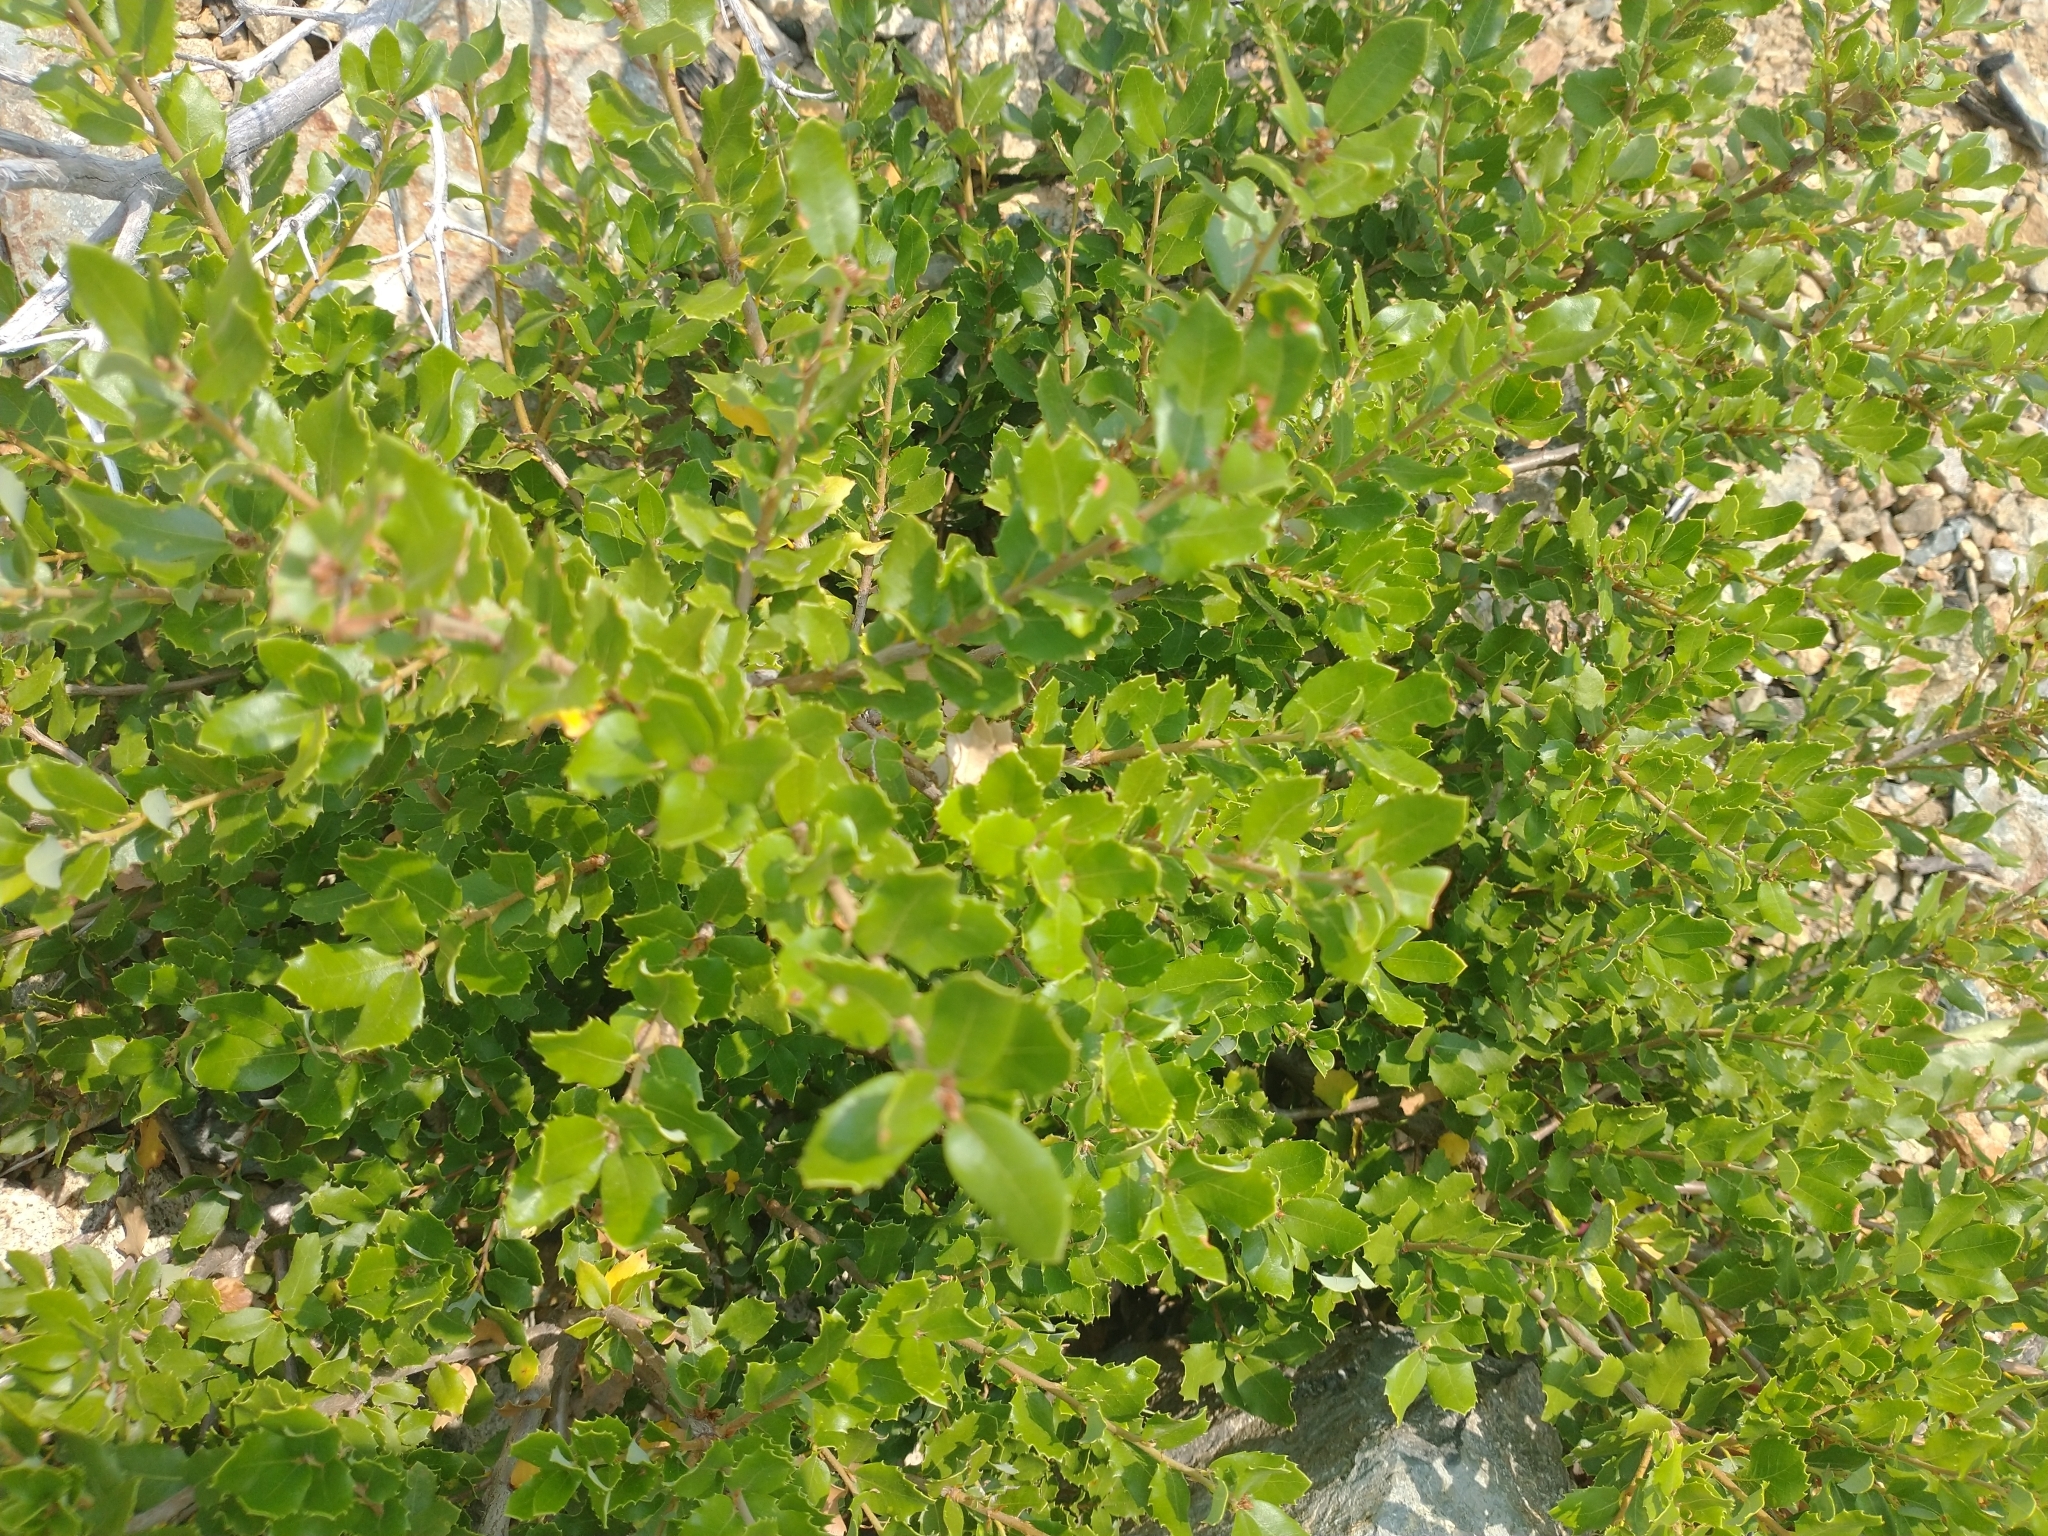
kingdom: Plantae
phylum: Tracheophyta
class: Magnoliopsida
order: Fagales
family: Fagaceae
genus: Quercus
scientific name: Quercus chrysolepis
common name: Canyon live oak
